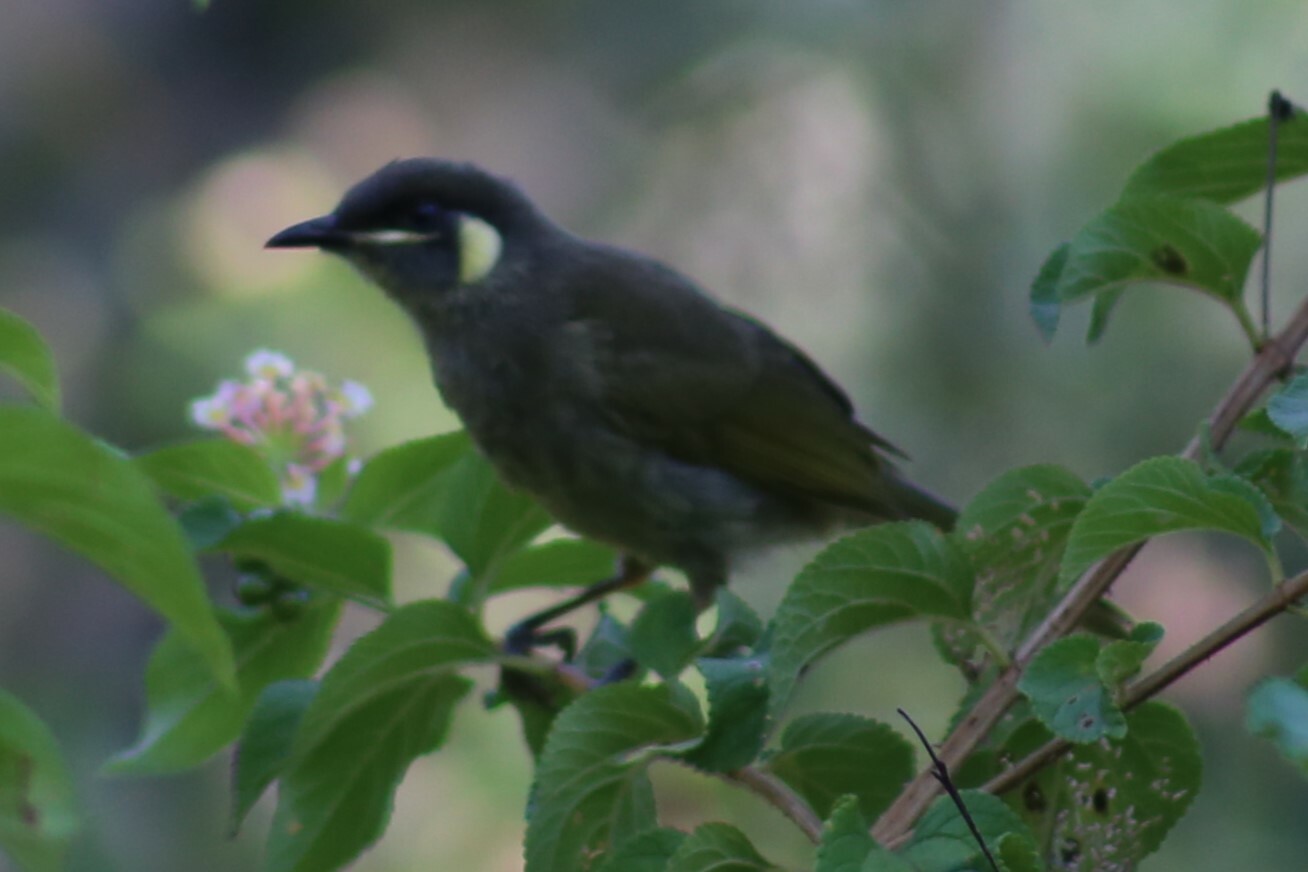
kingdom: Animalia
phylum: Chordata
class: Aves
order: Passeriformes
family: Meliphagidae
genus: Meliphaga
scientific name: Meliphaga lewinii
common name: Lewin's honeyeater
